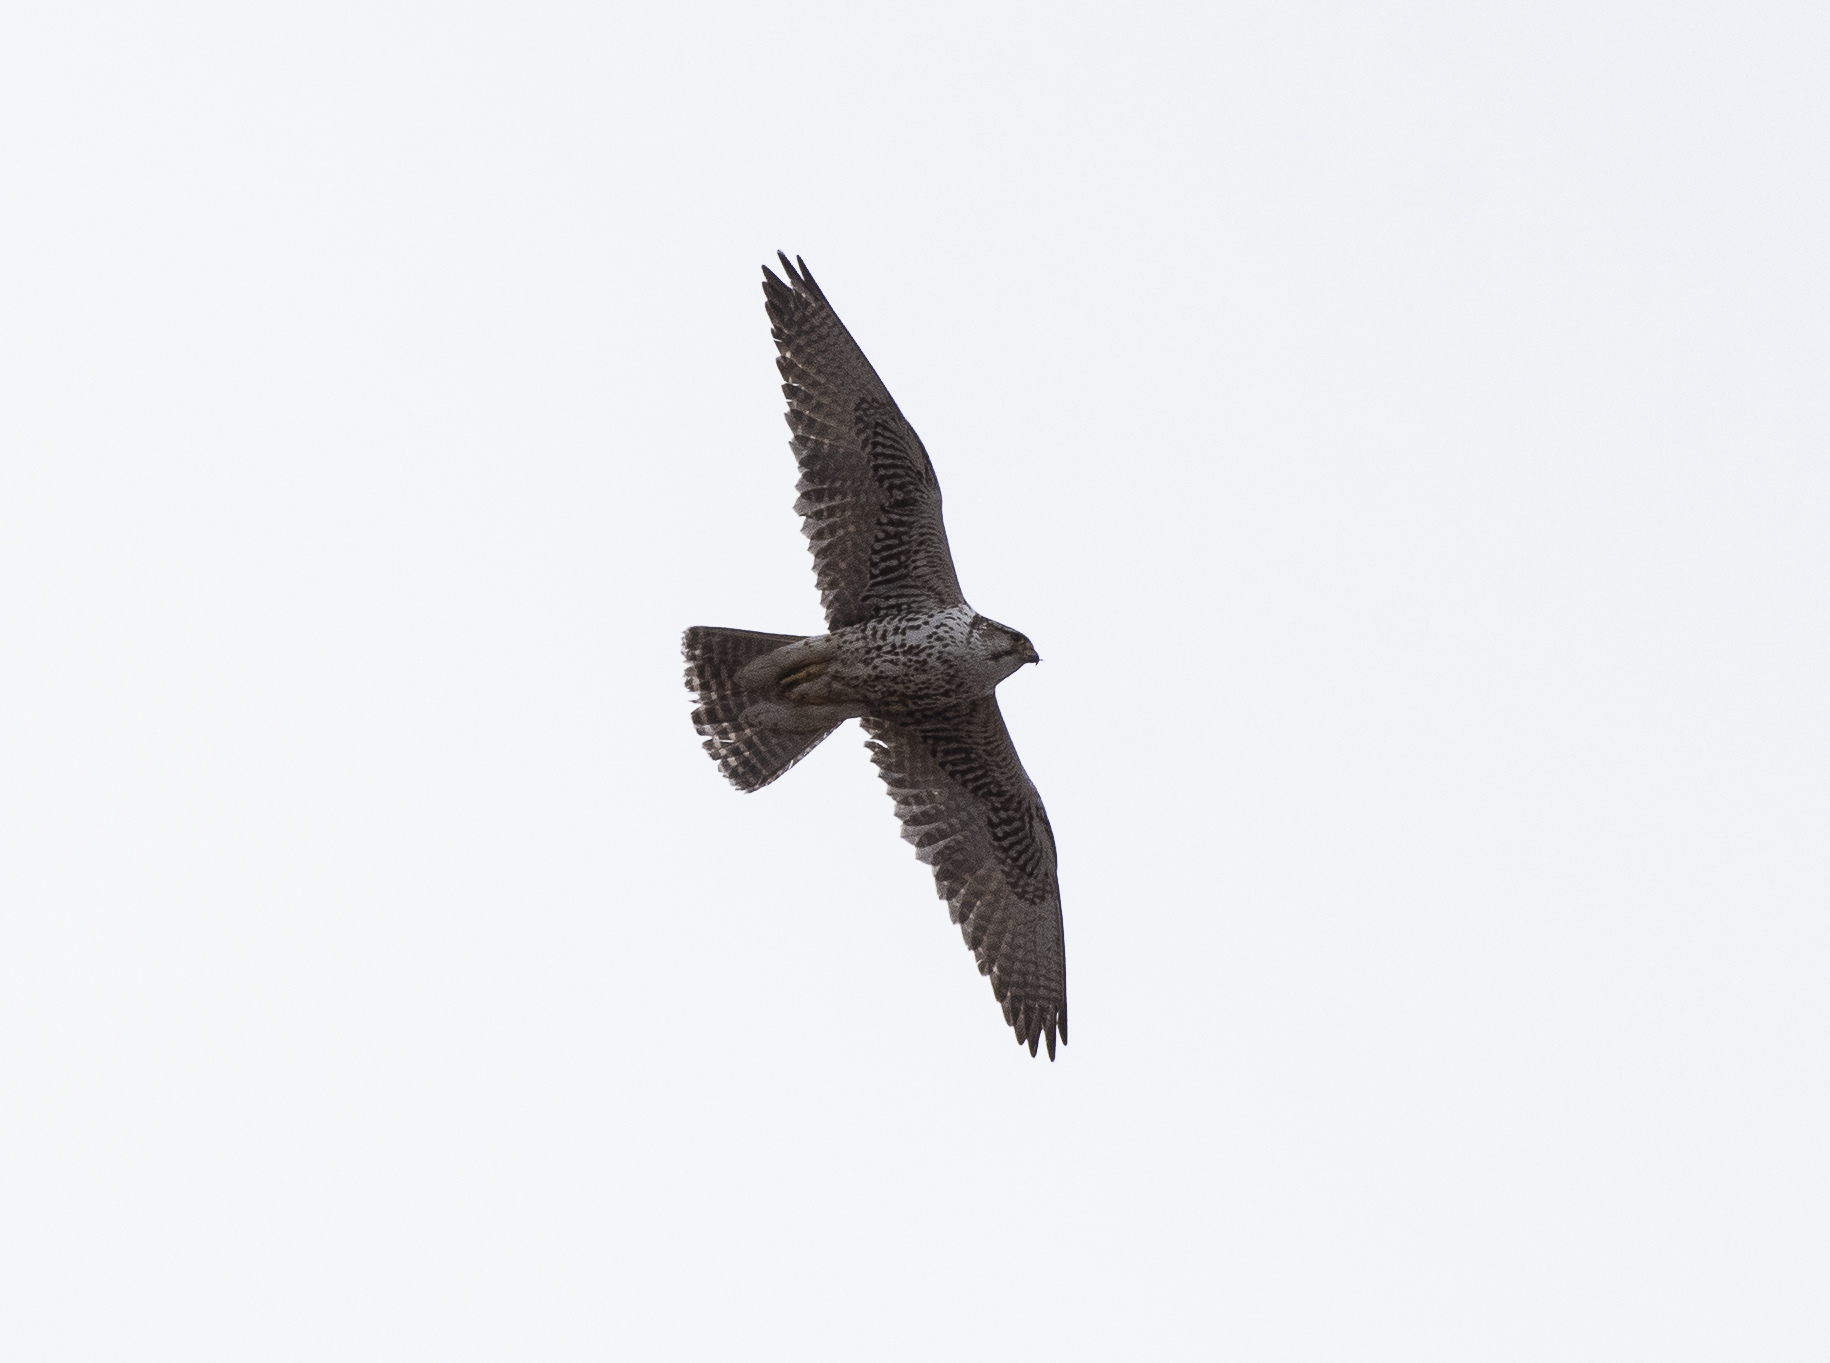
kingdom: Animalia
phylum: Chordata
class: Aves
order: Falconiformes
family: Falconidae
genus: Falco
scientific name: Falco cherrug
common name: Saker falcon
